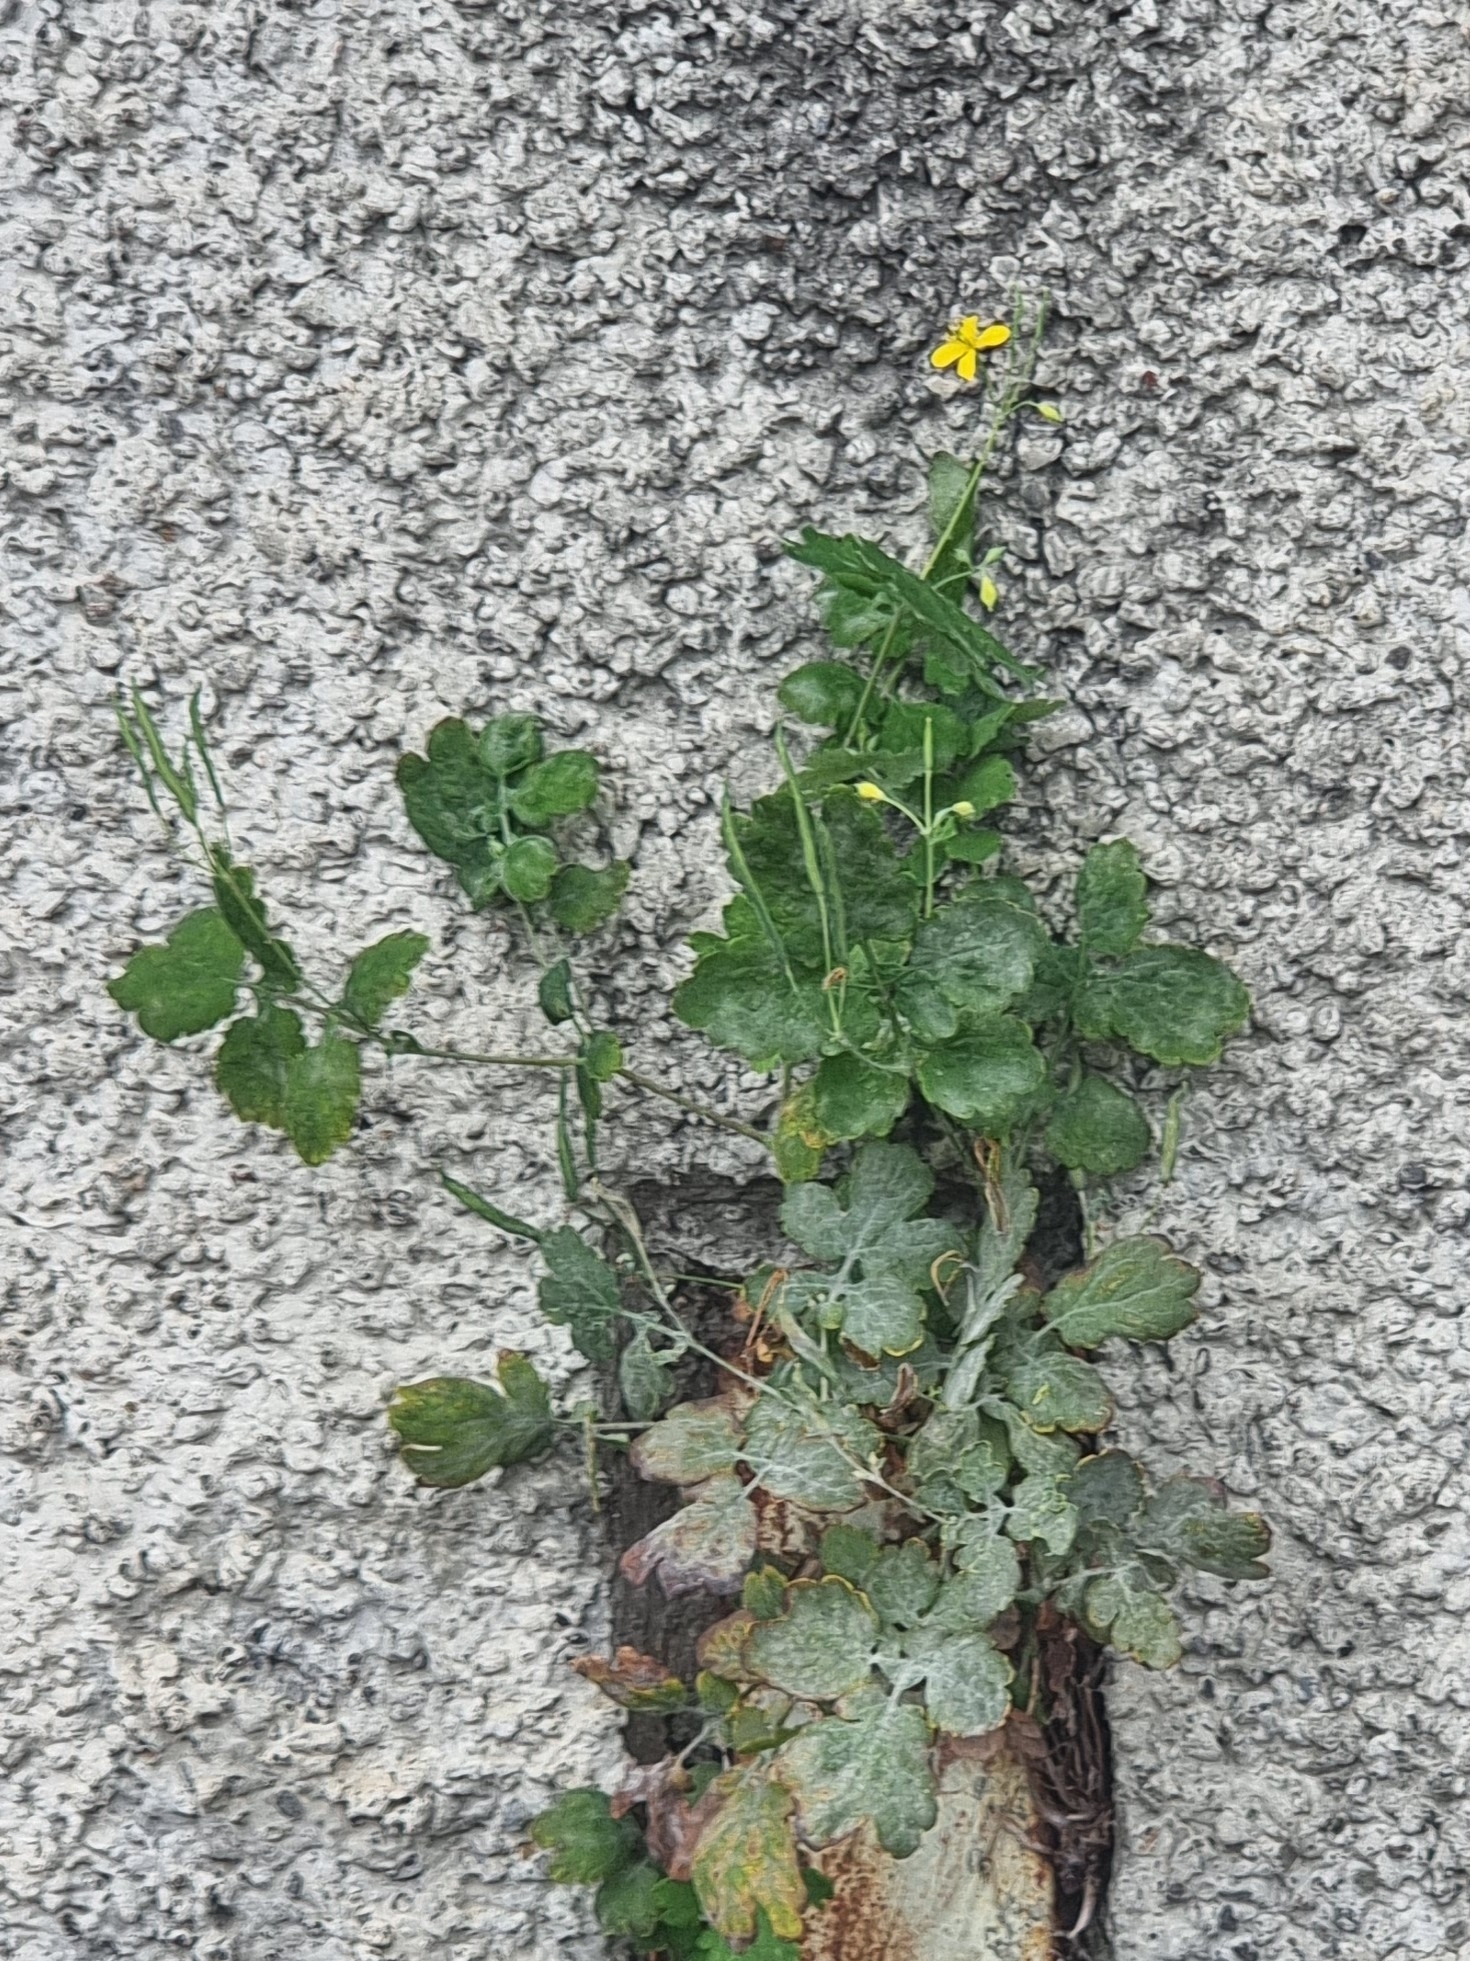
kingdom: Plantae
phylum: Tracheophyta
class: Magnoliopsida
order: Ranunculales
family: Papaveraceae
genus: Chelidonium
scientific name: Chelidonium majus
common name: Greater celandine
